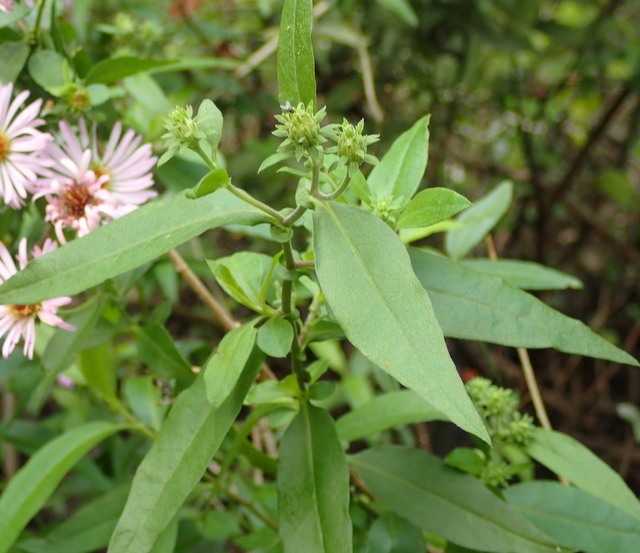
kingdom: Plantae
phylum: Tracheophyta
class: Magnoliopsida
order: Asterales
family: Asteraceae
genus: Ampelaster
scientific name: Ampelaster carolinianus
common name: Climbing aster
